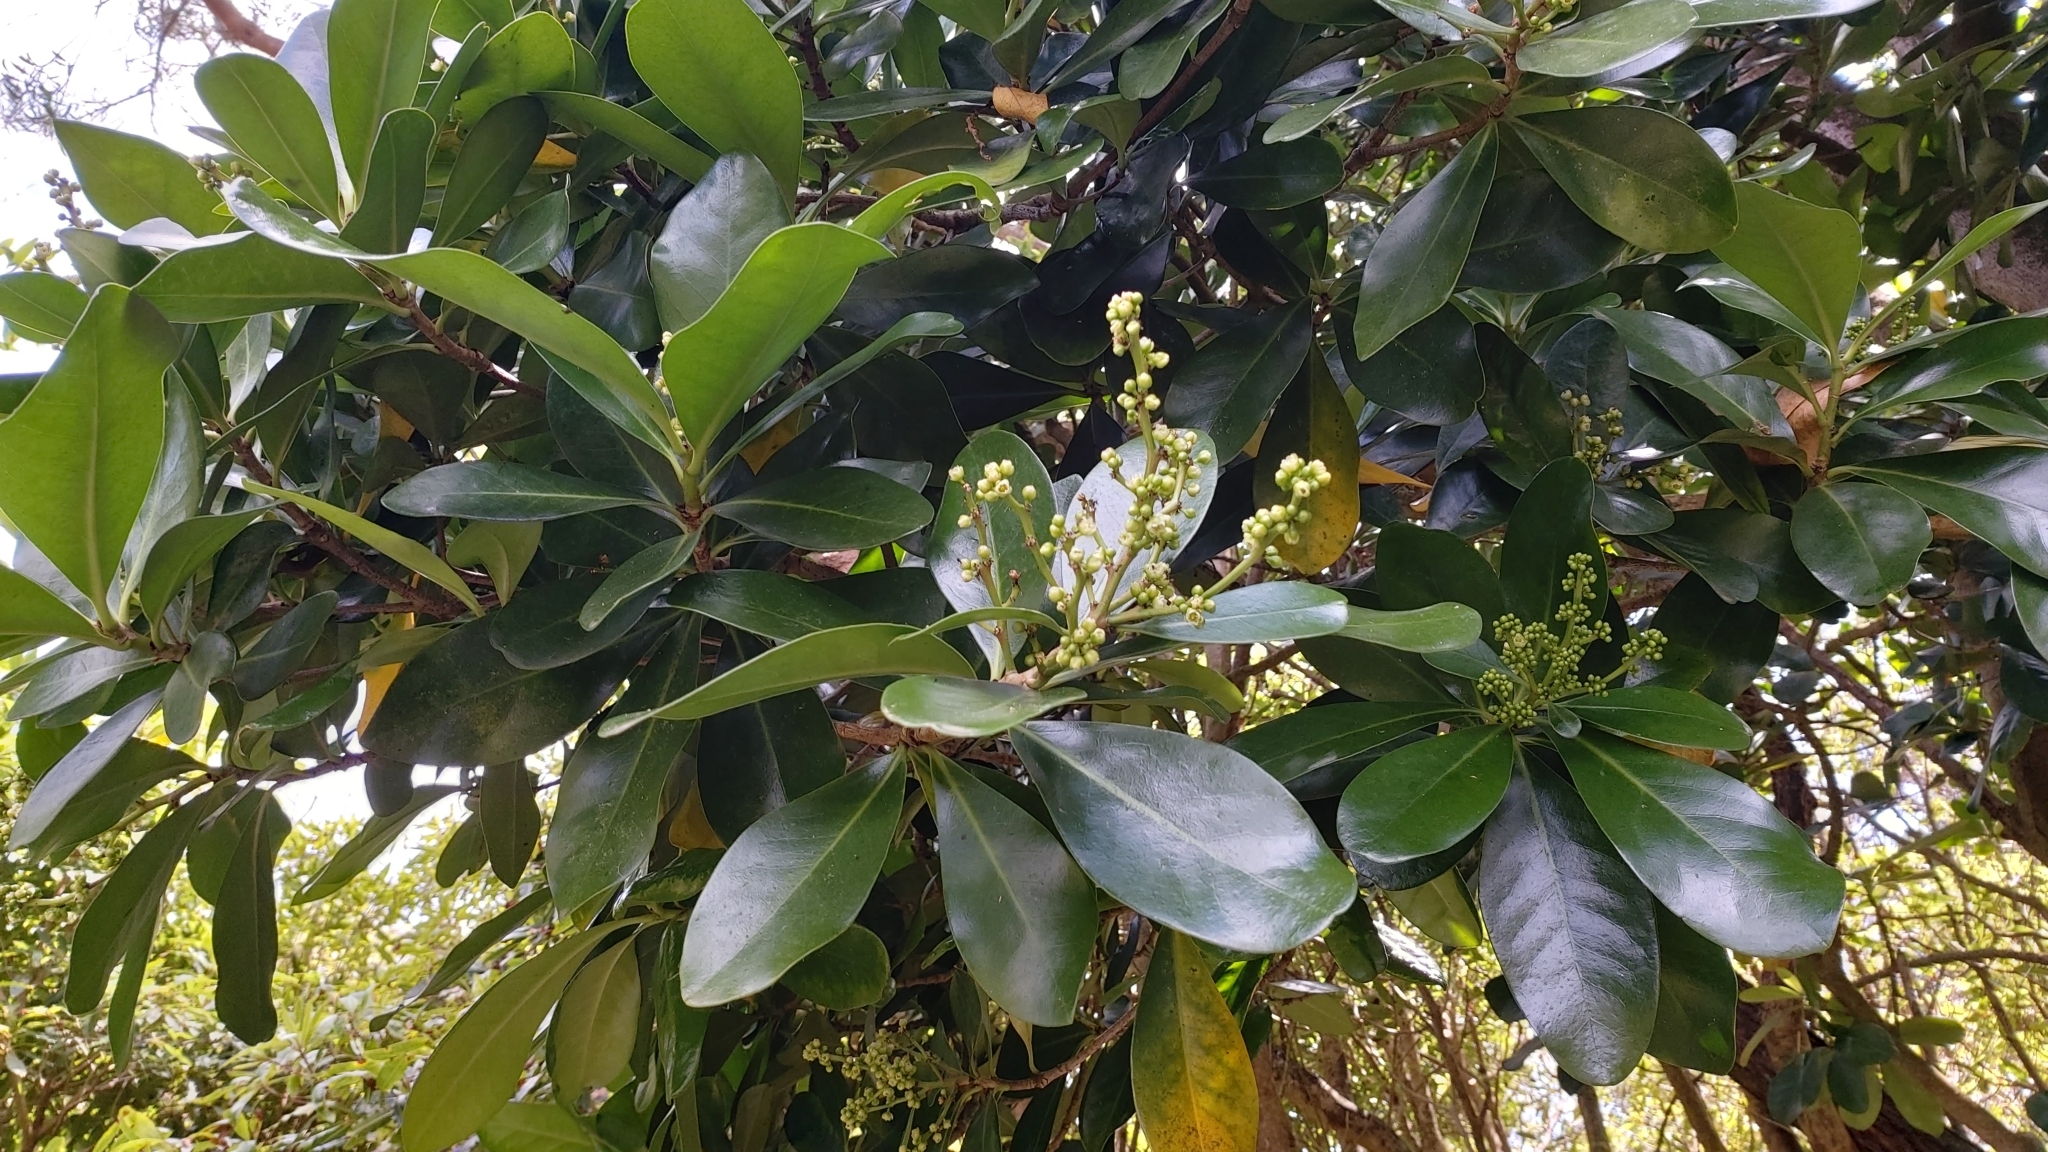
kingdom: Plantae
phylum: Tracheophyta
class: Magnoliopsida
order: Cucurbitales
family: Corynocarpaceae
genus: Corynocarpus
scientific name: Corynocarpus laevigatus
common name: New zealand laurel
